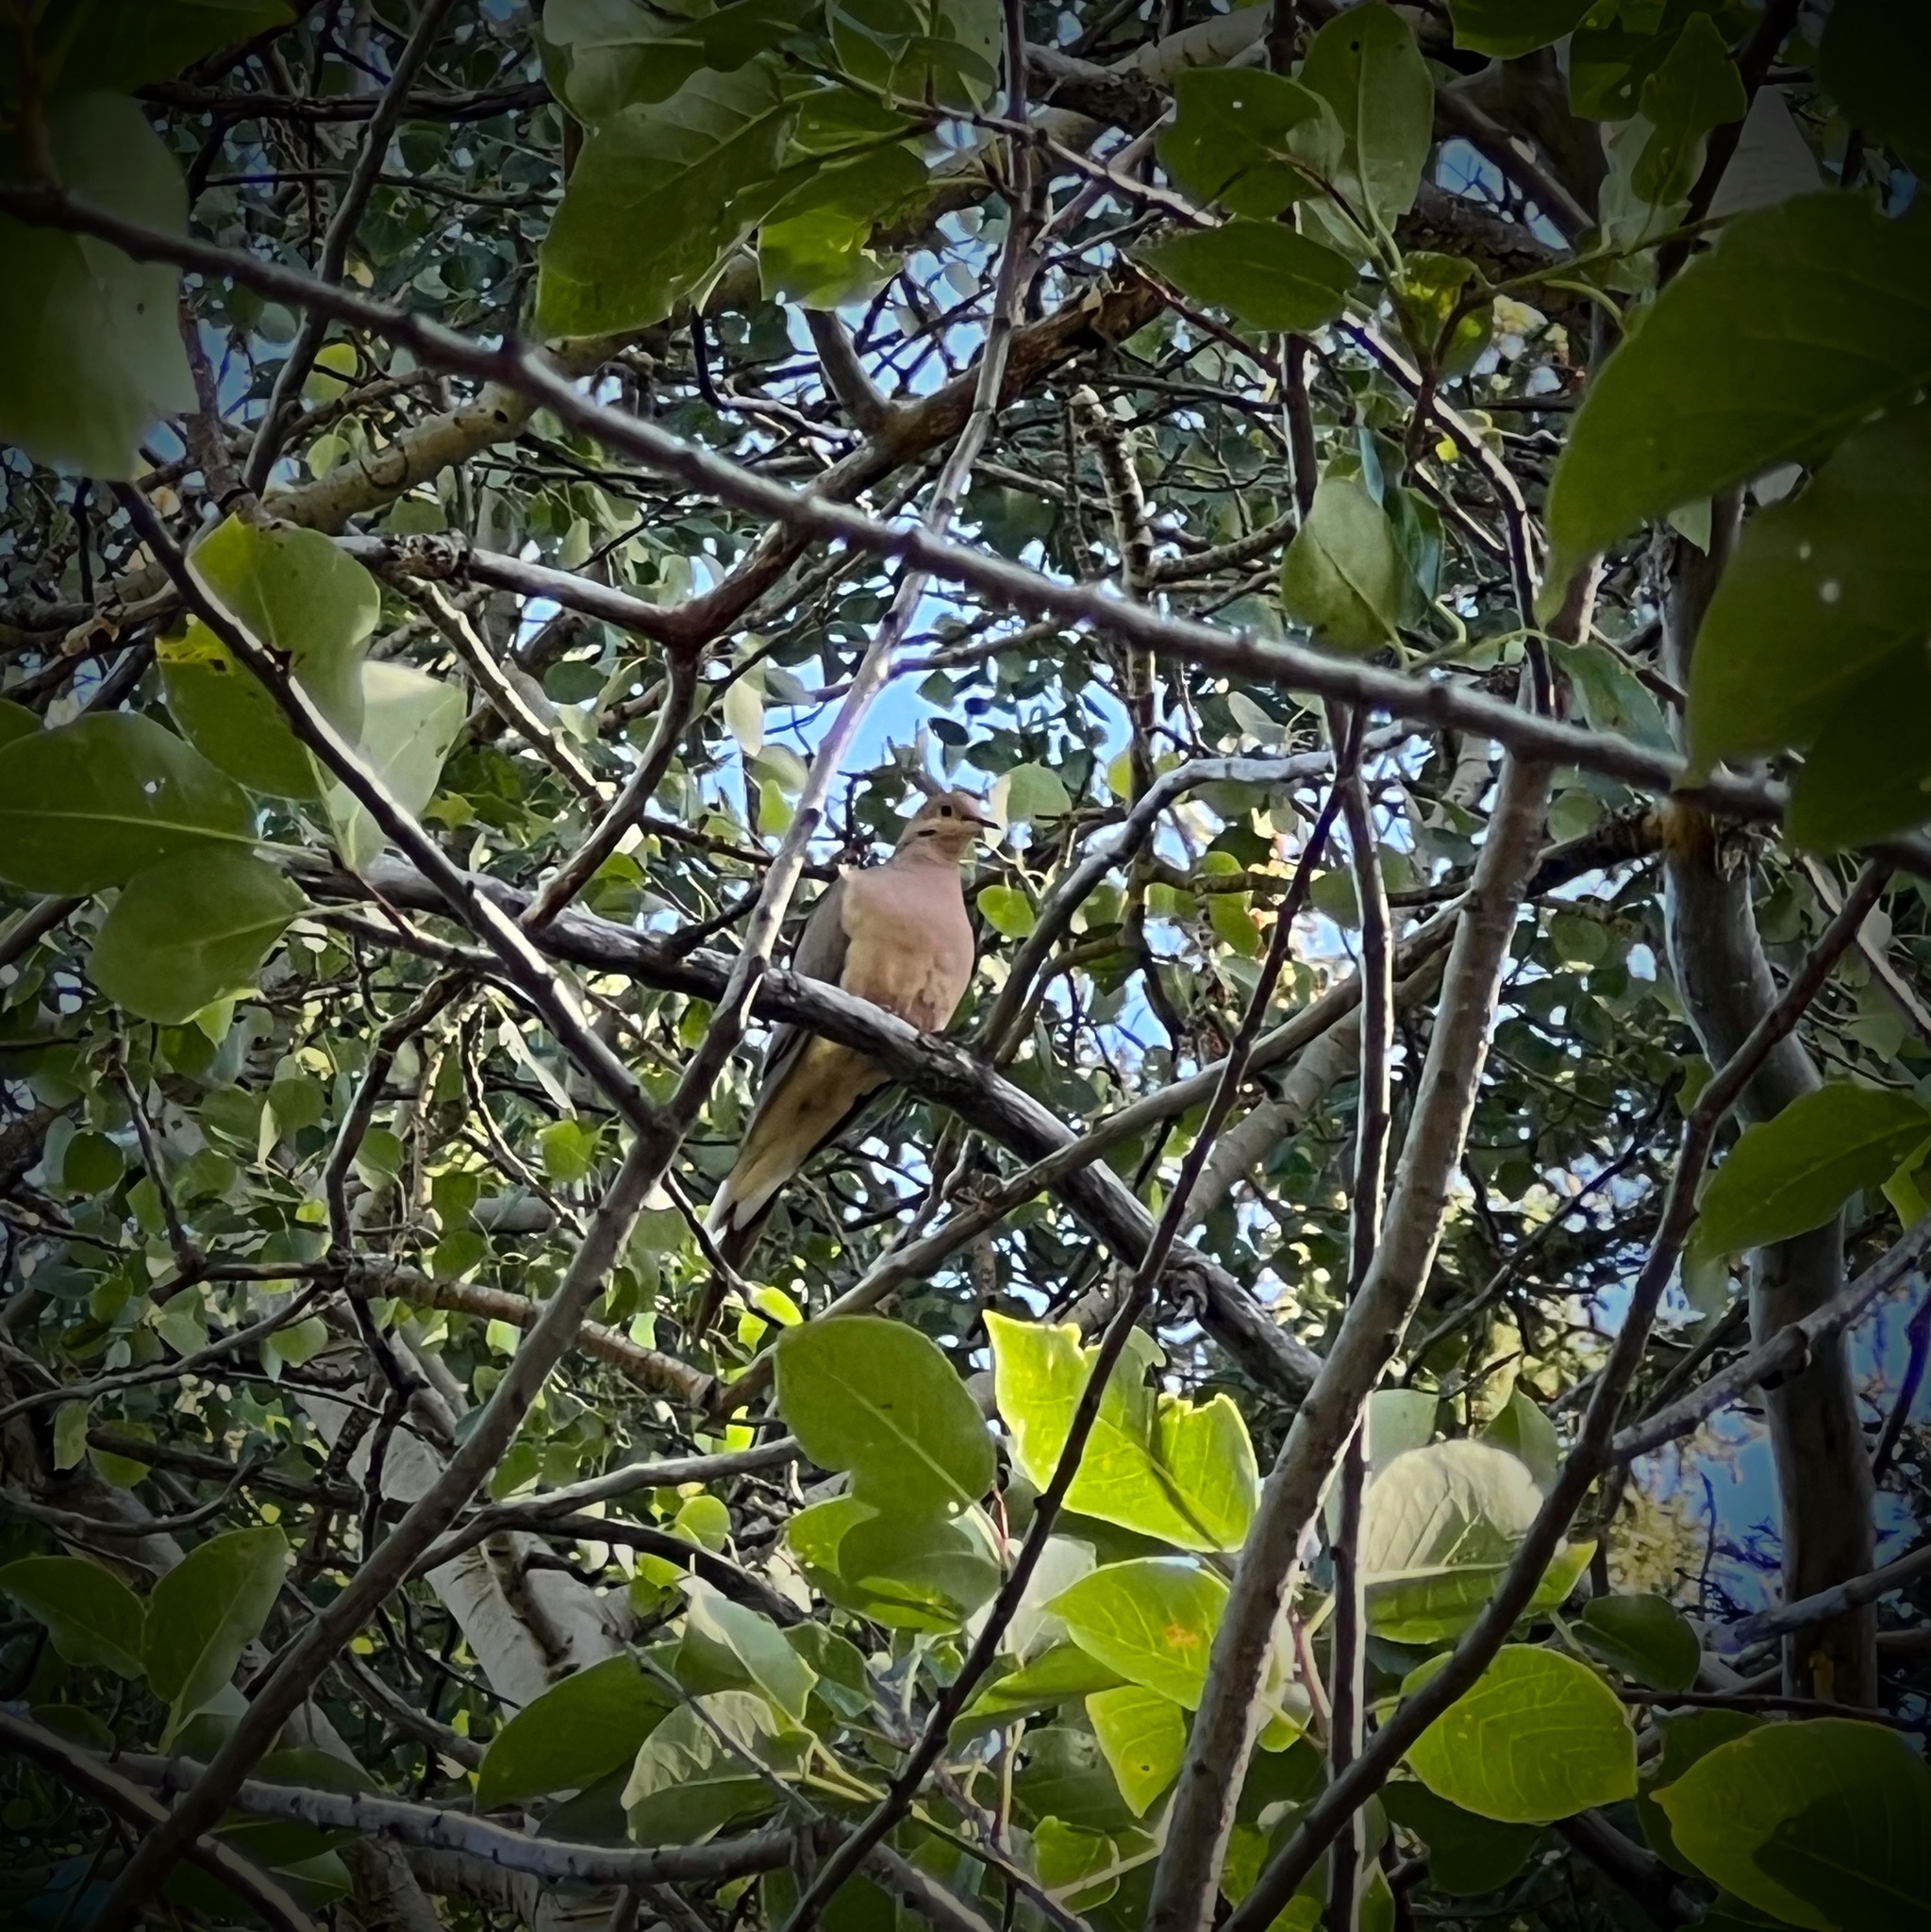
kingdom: Animalia
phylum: Chordata
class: Aves
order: Columbiformes
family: Columbidae
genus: Zenaida
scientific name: Zenaida macroura
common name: Mourning dove
